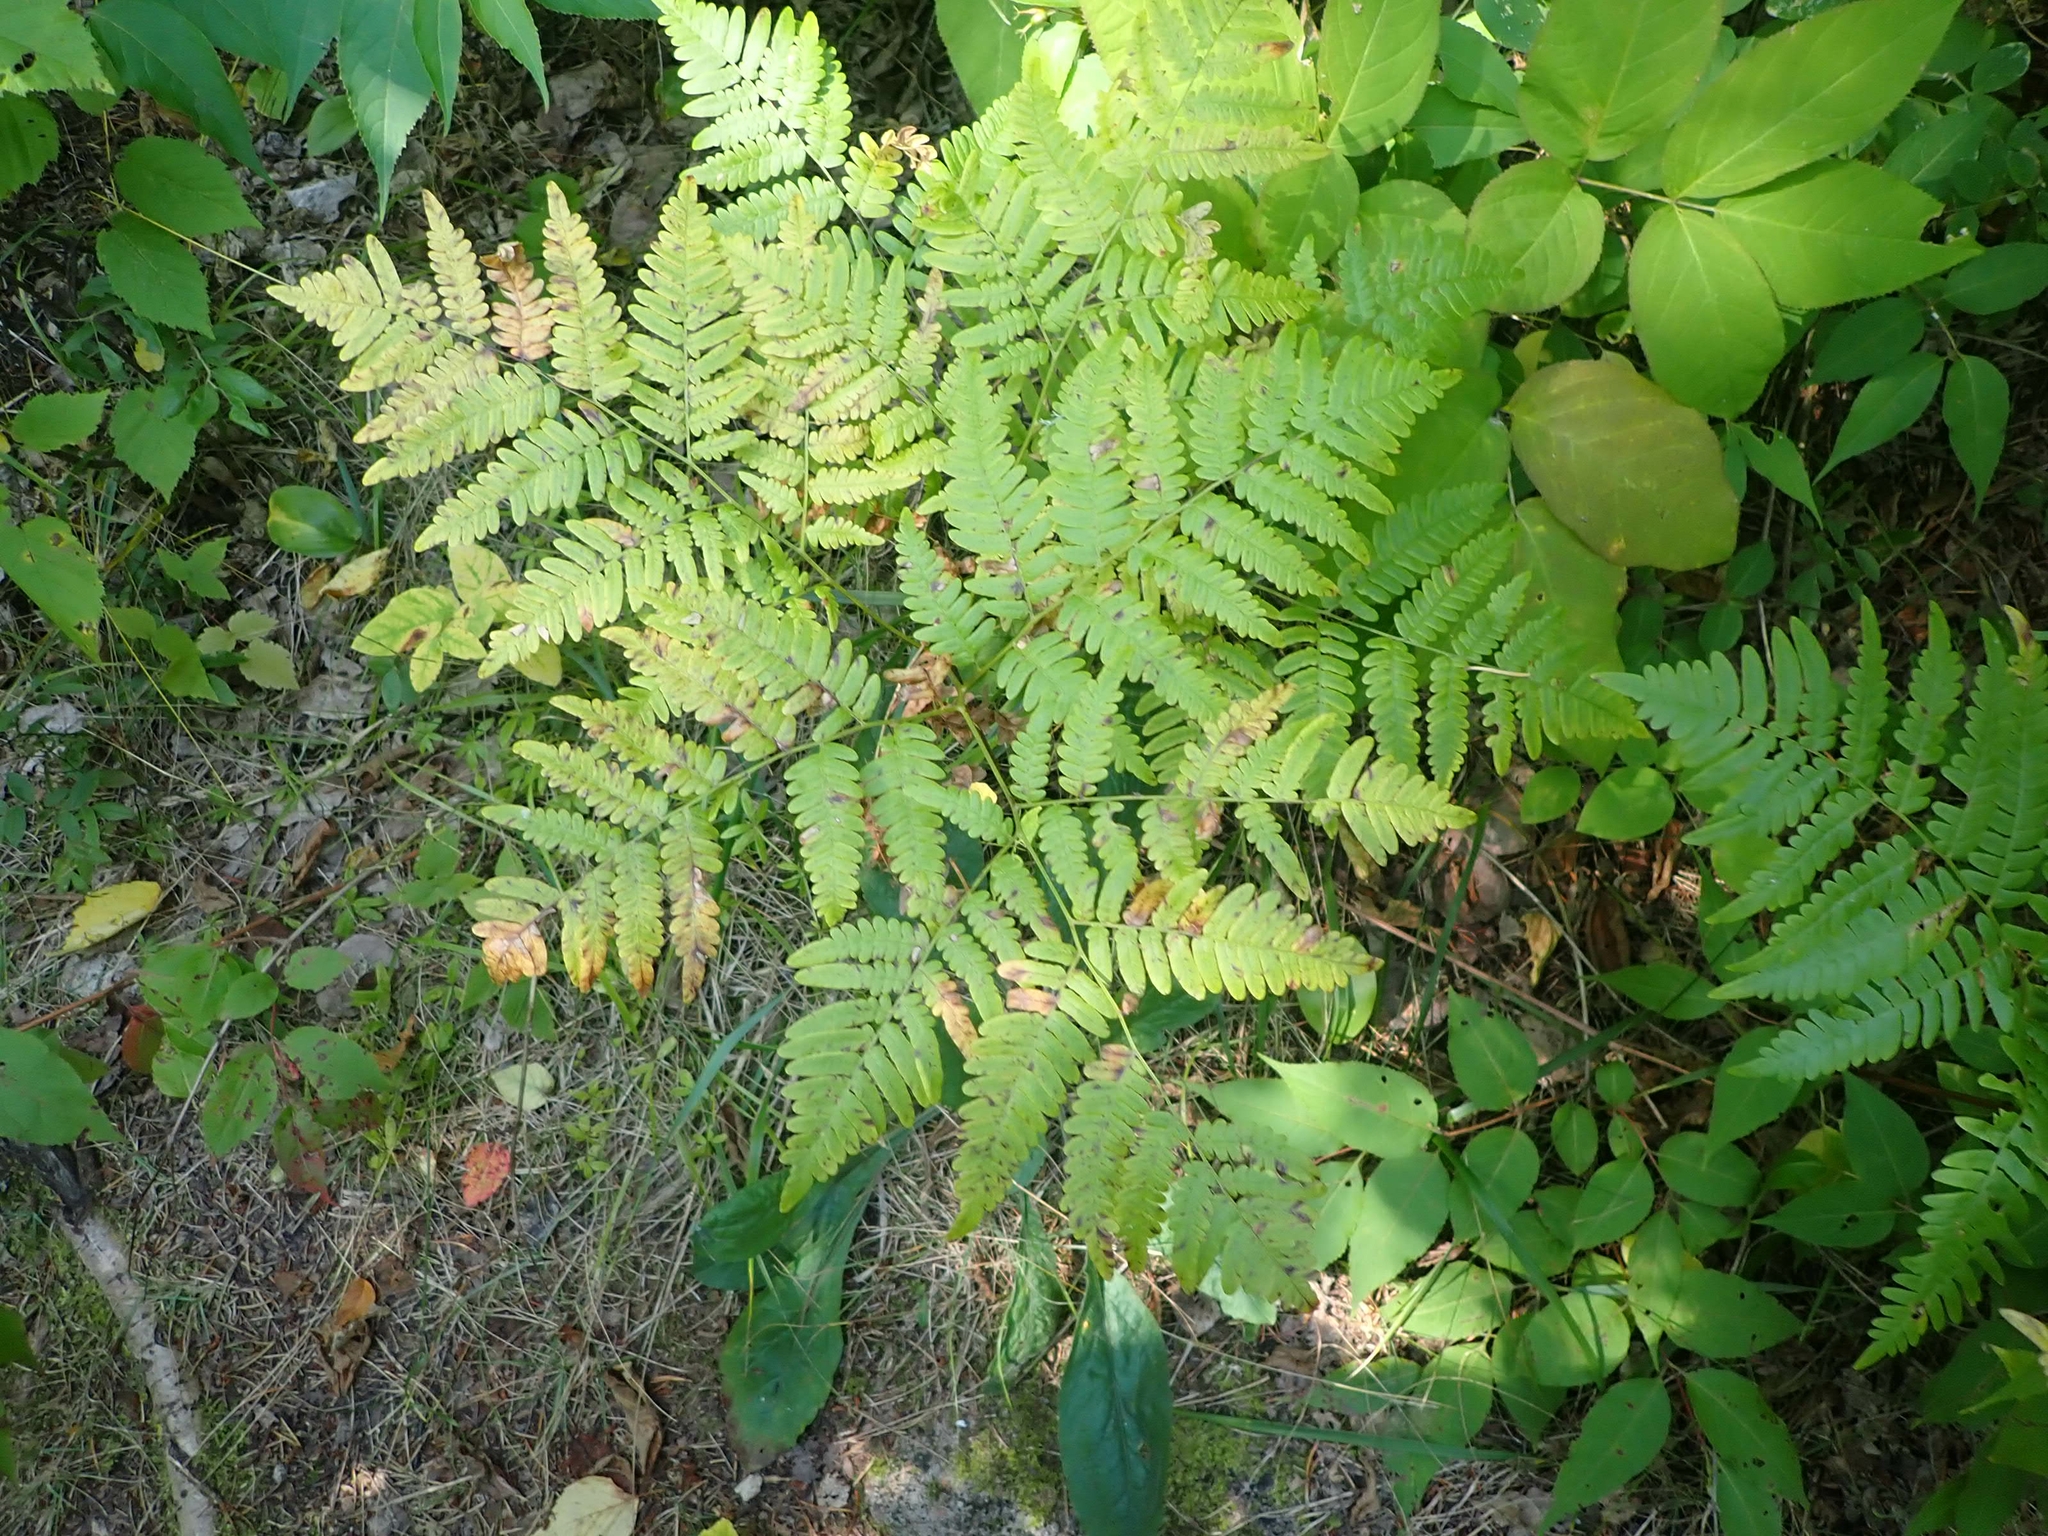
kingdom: Plantae
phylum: Tracheophyta
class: Polypodiopsida
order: Polypodiales
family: Dennstaedtiaceae
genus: Pteridium
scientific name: Pteridium aquilinum
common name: Bracken
